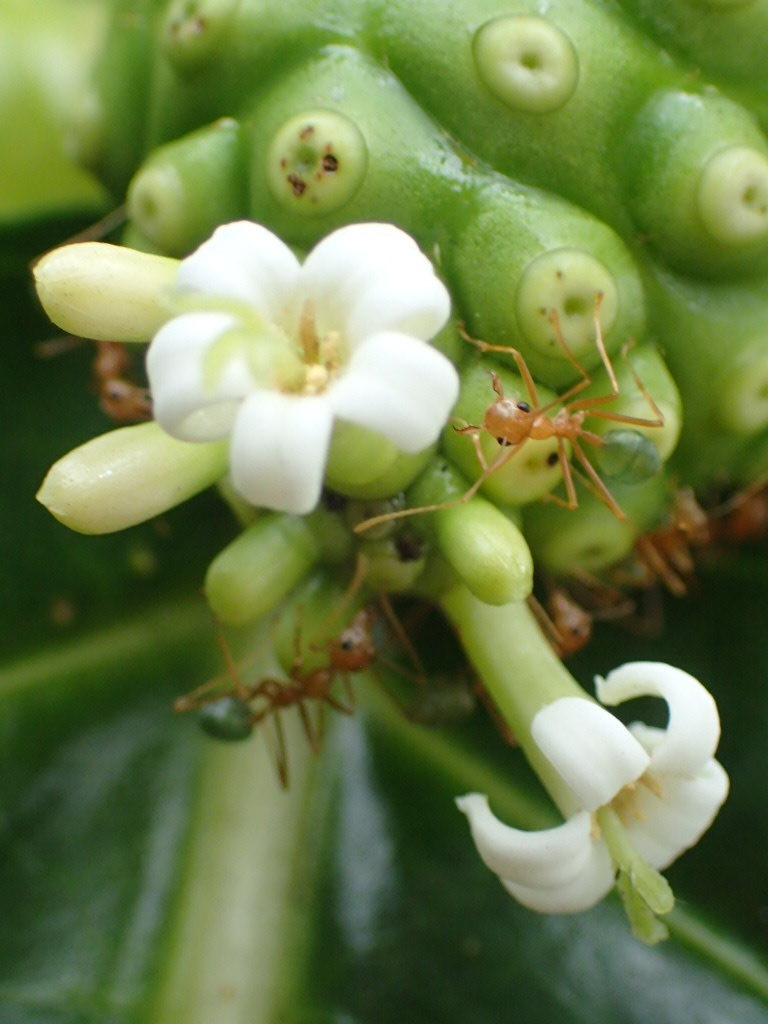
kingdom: Animalia
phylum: Arthropoda
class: Insecta
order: Hymenoptera
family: Formicidae
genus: Oecophylla
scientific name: Oecophylla smaragdina
